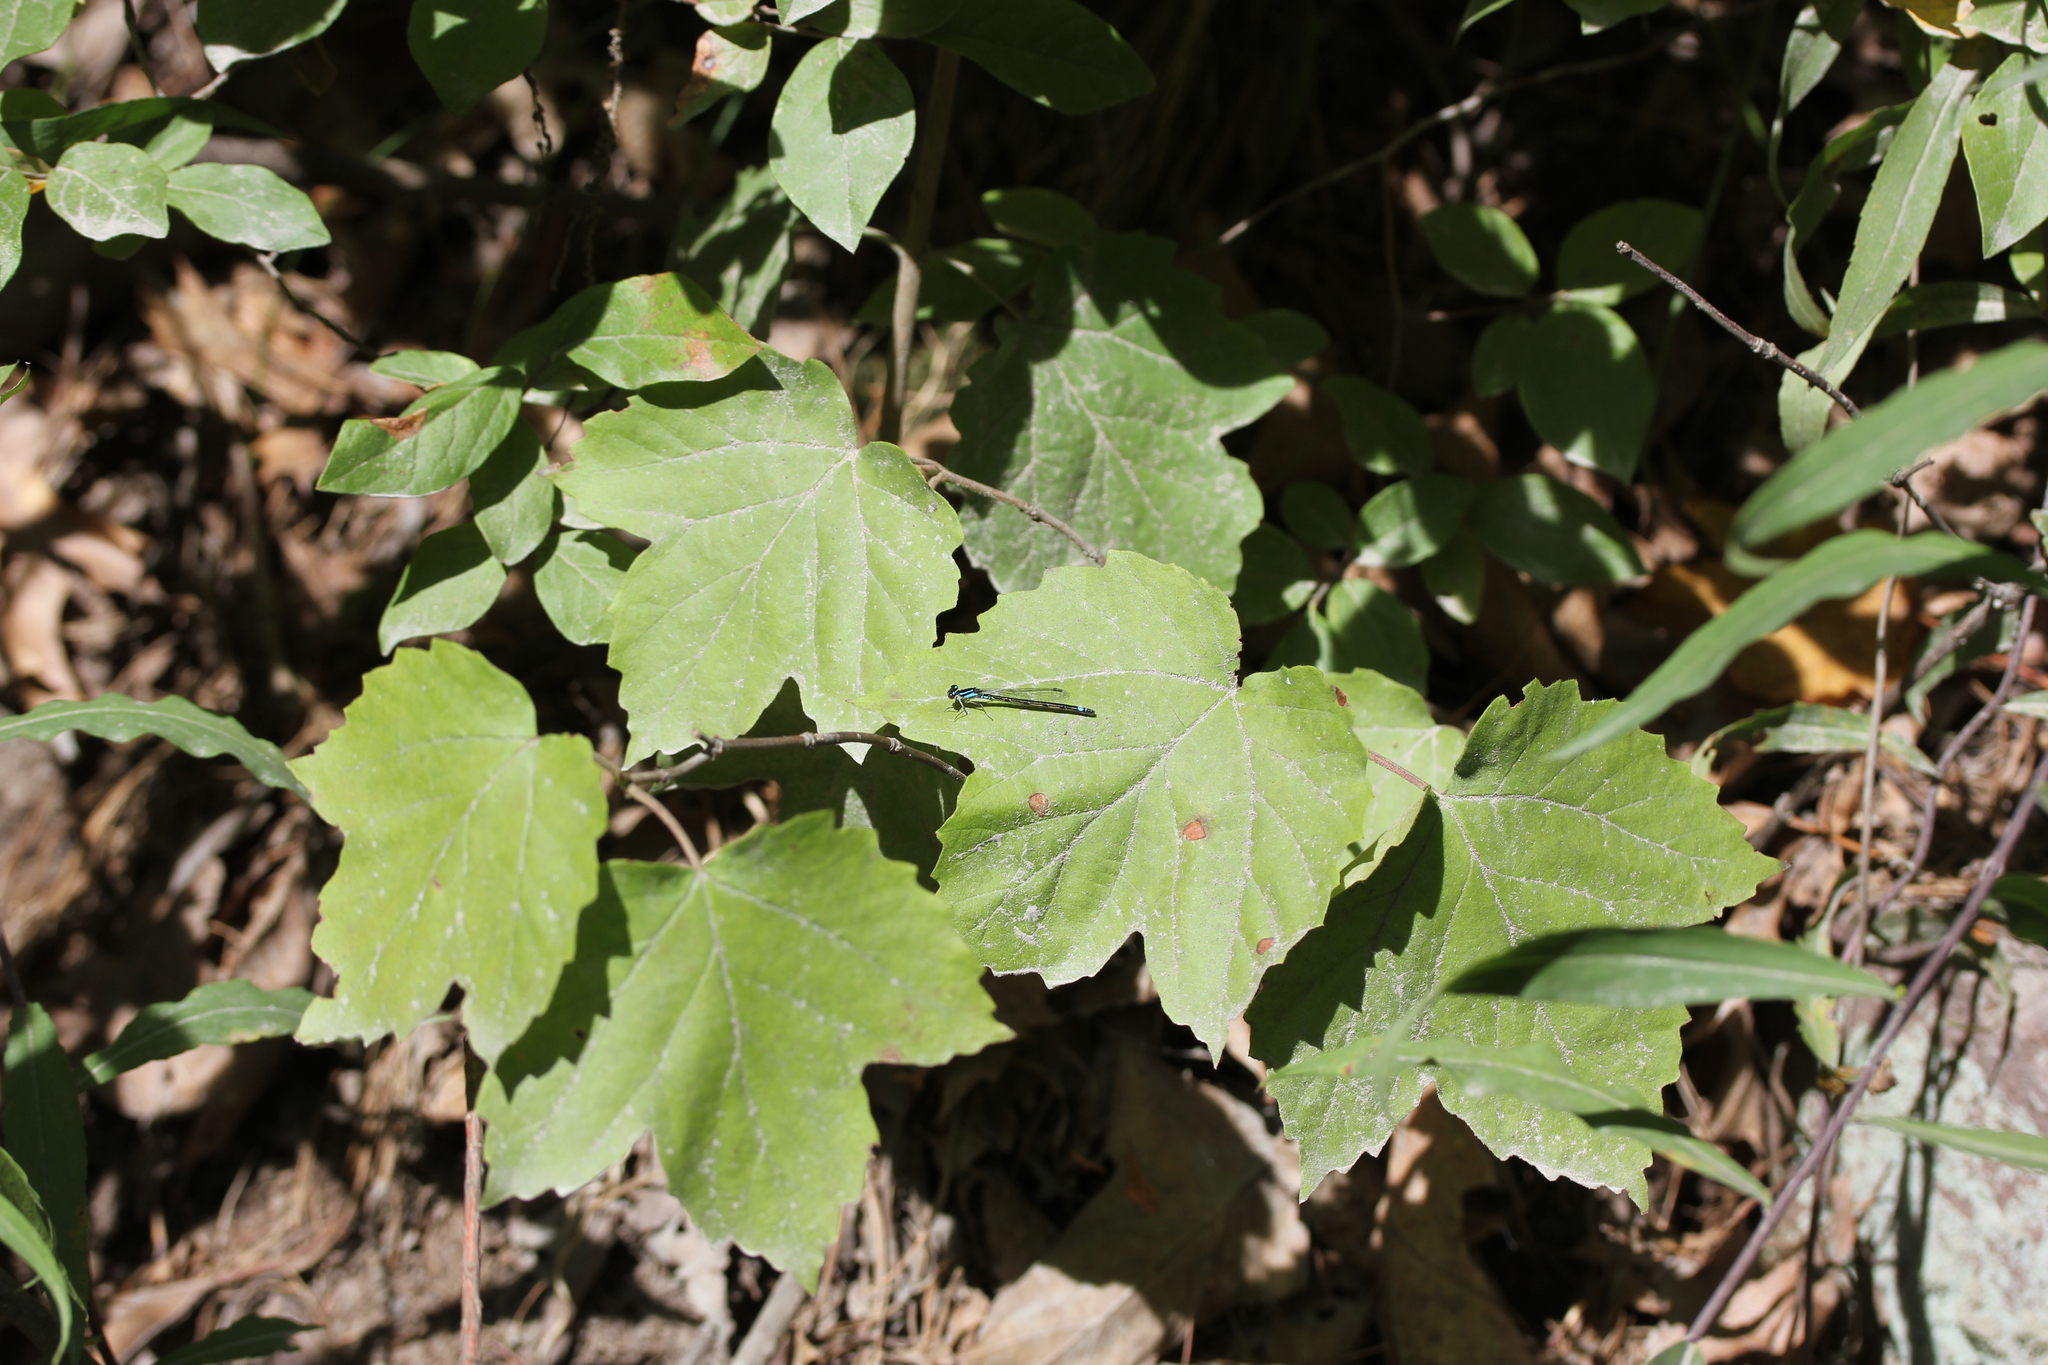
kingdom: Plantae
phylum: Tracheophyta
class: Magnoliopsida
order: Dipsacales
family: Viburnaceae
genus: Viburnum
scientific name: Viburnum acerifolium
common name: Dockmackie
